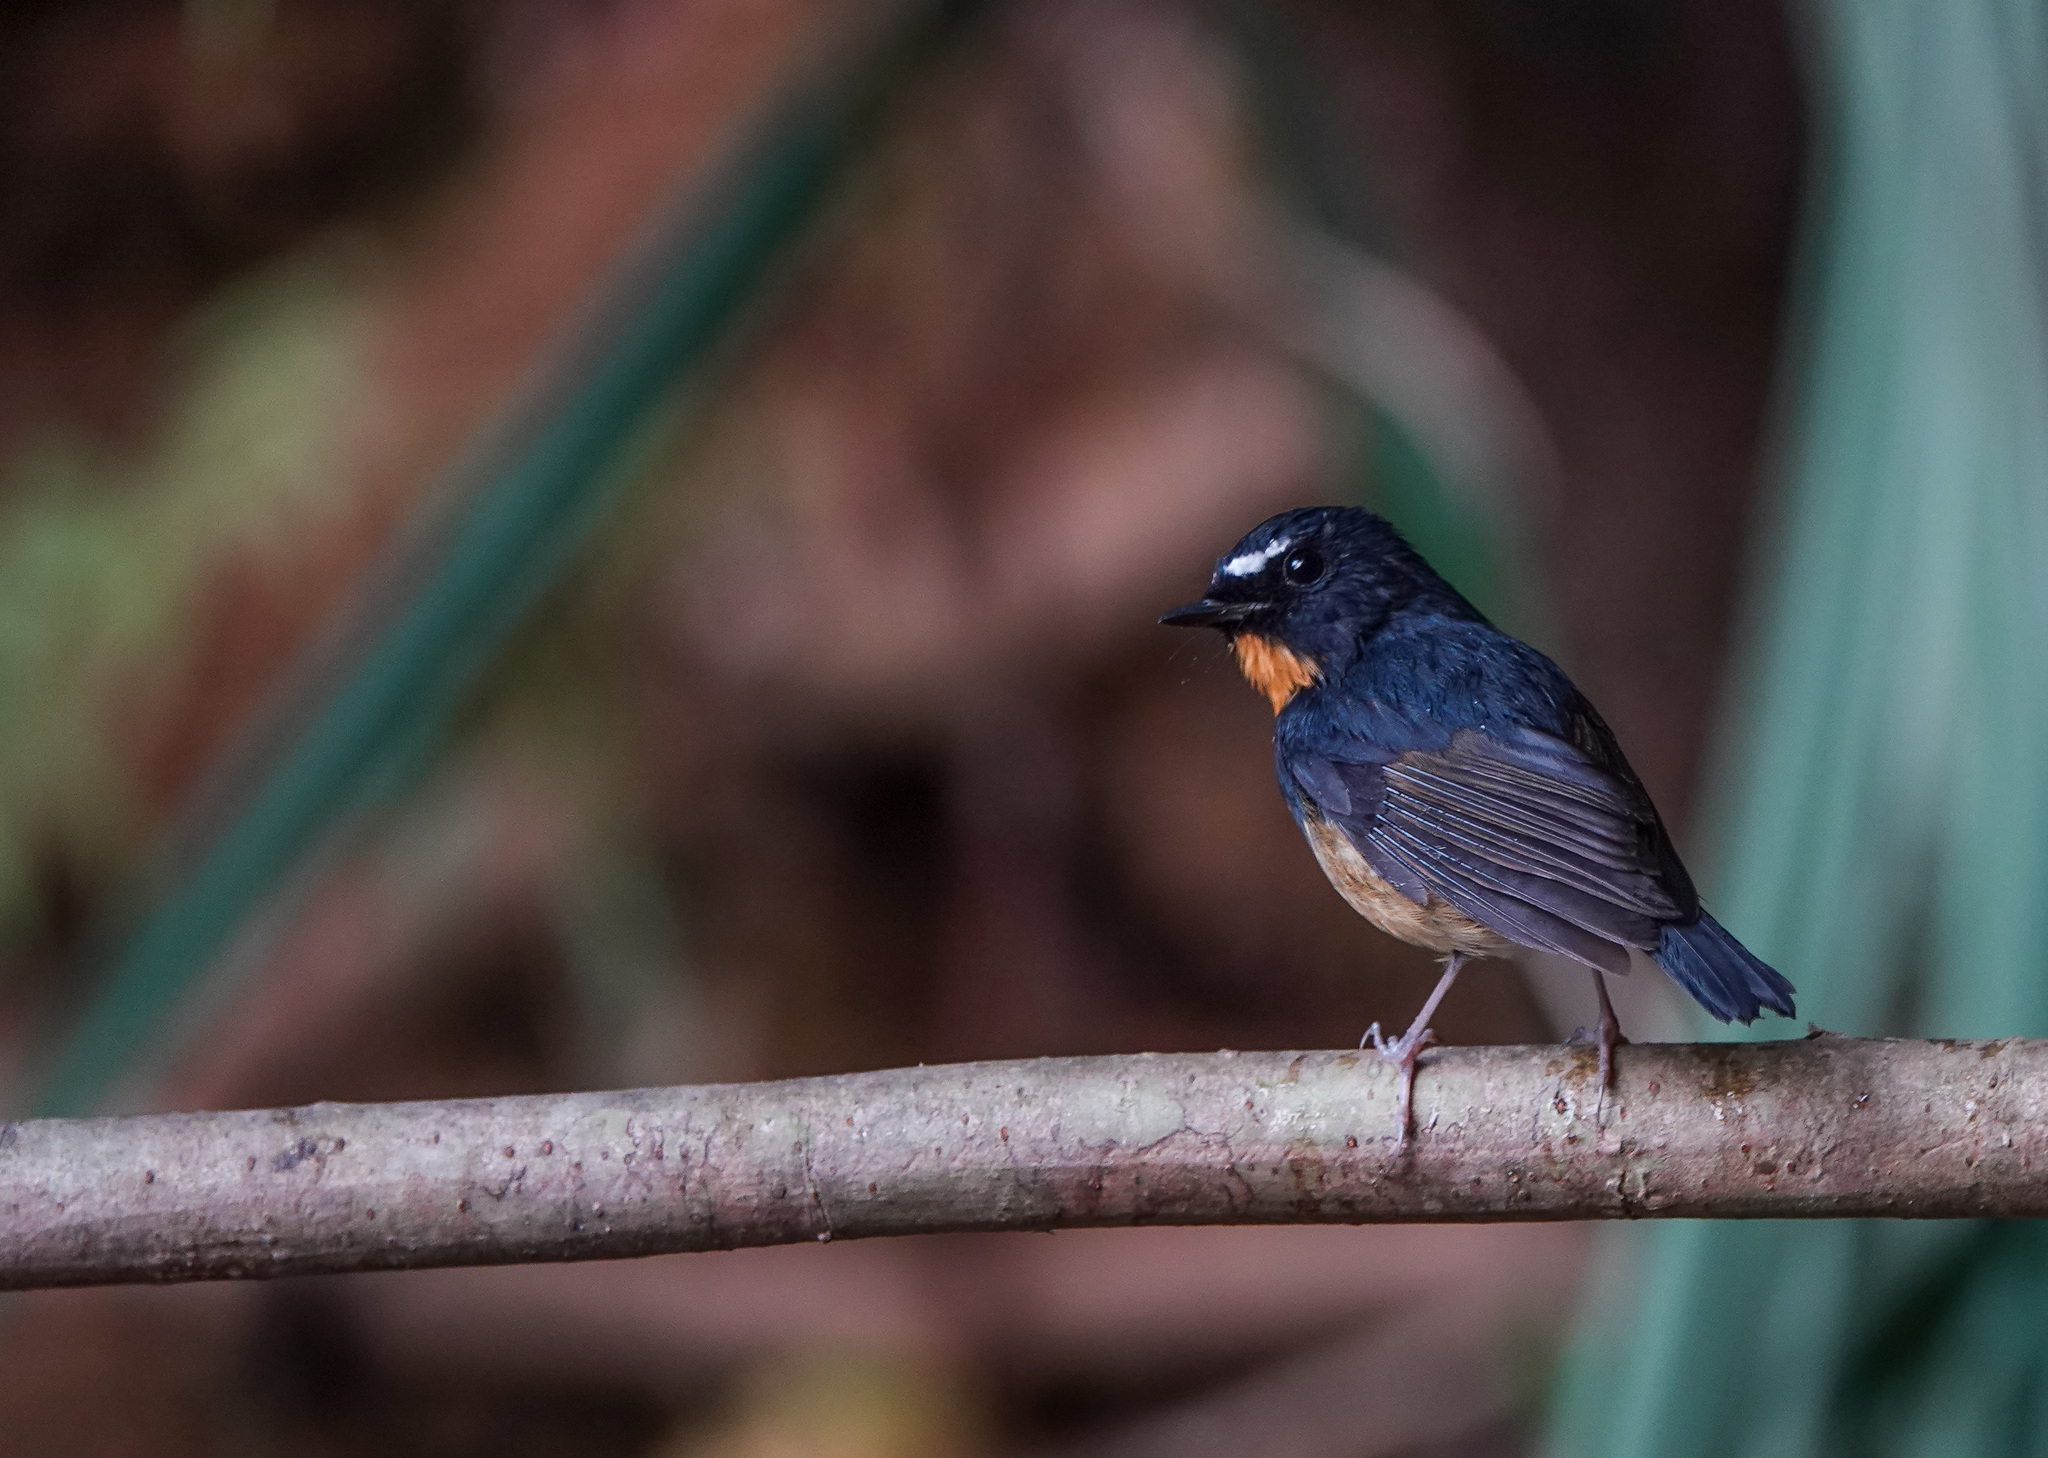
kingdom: Animalia
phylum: Chordata
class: Aves
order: Passeriformes
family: Muscicapidae
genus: Ficedula
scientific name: Ficedula hyperythra
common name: Snowy-browed flycatcher
